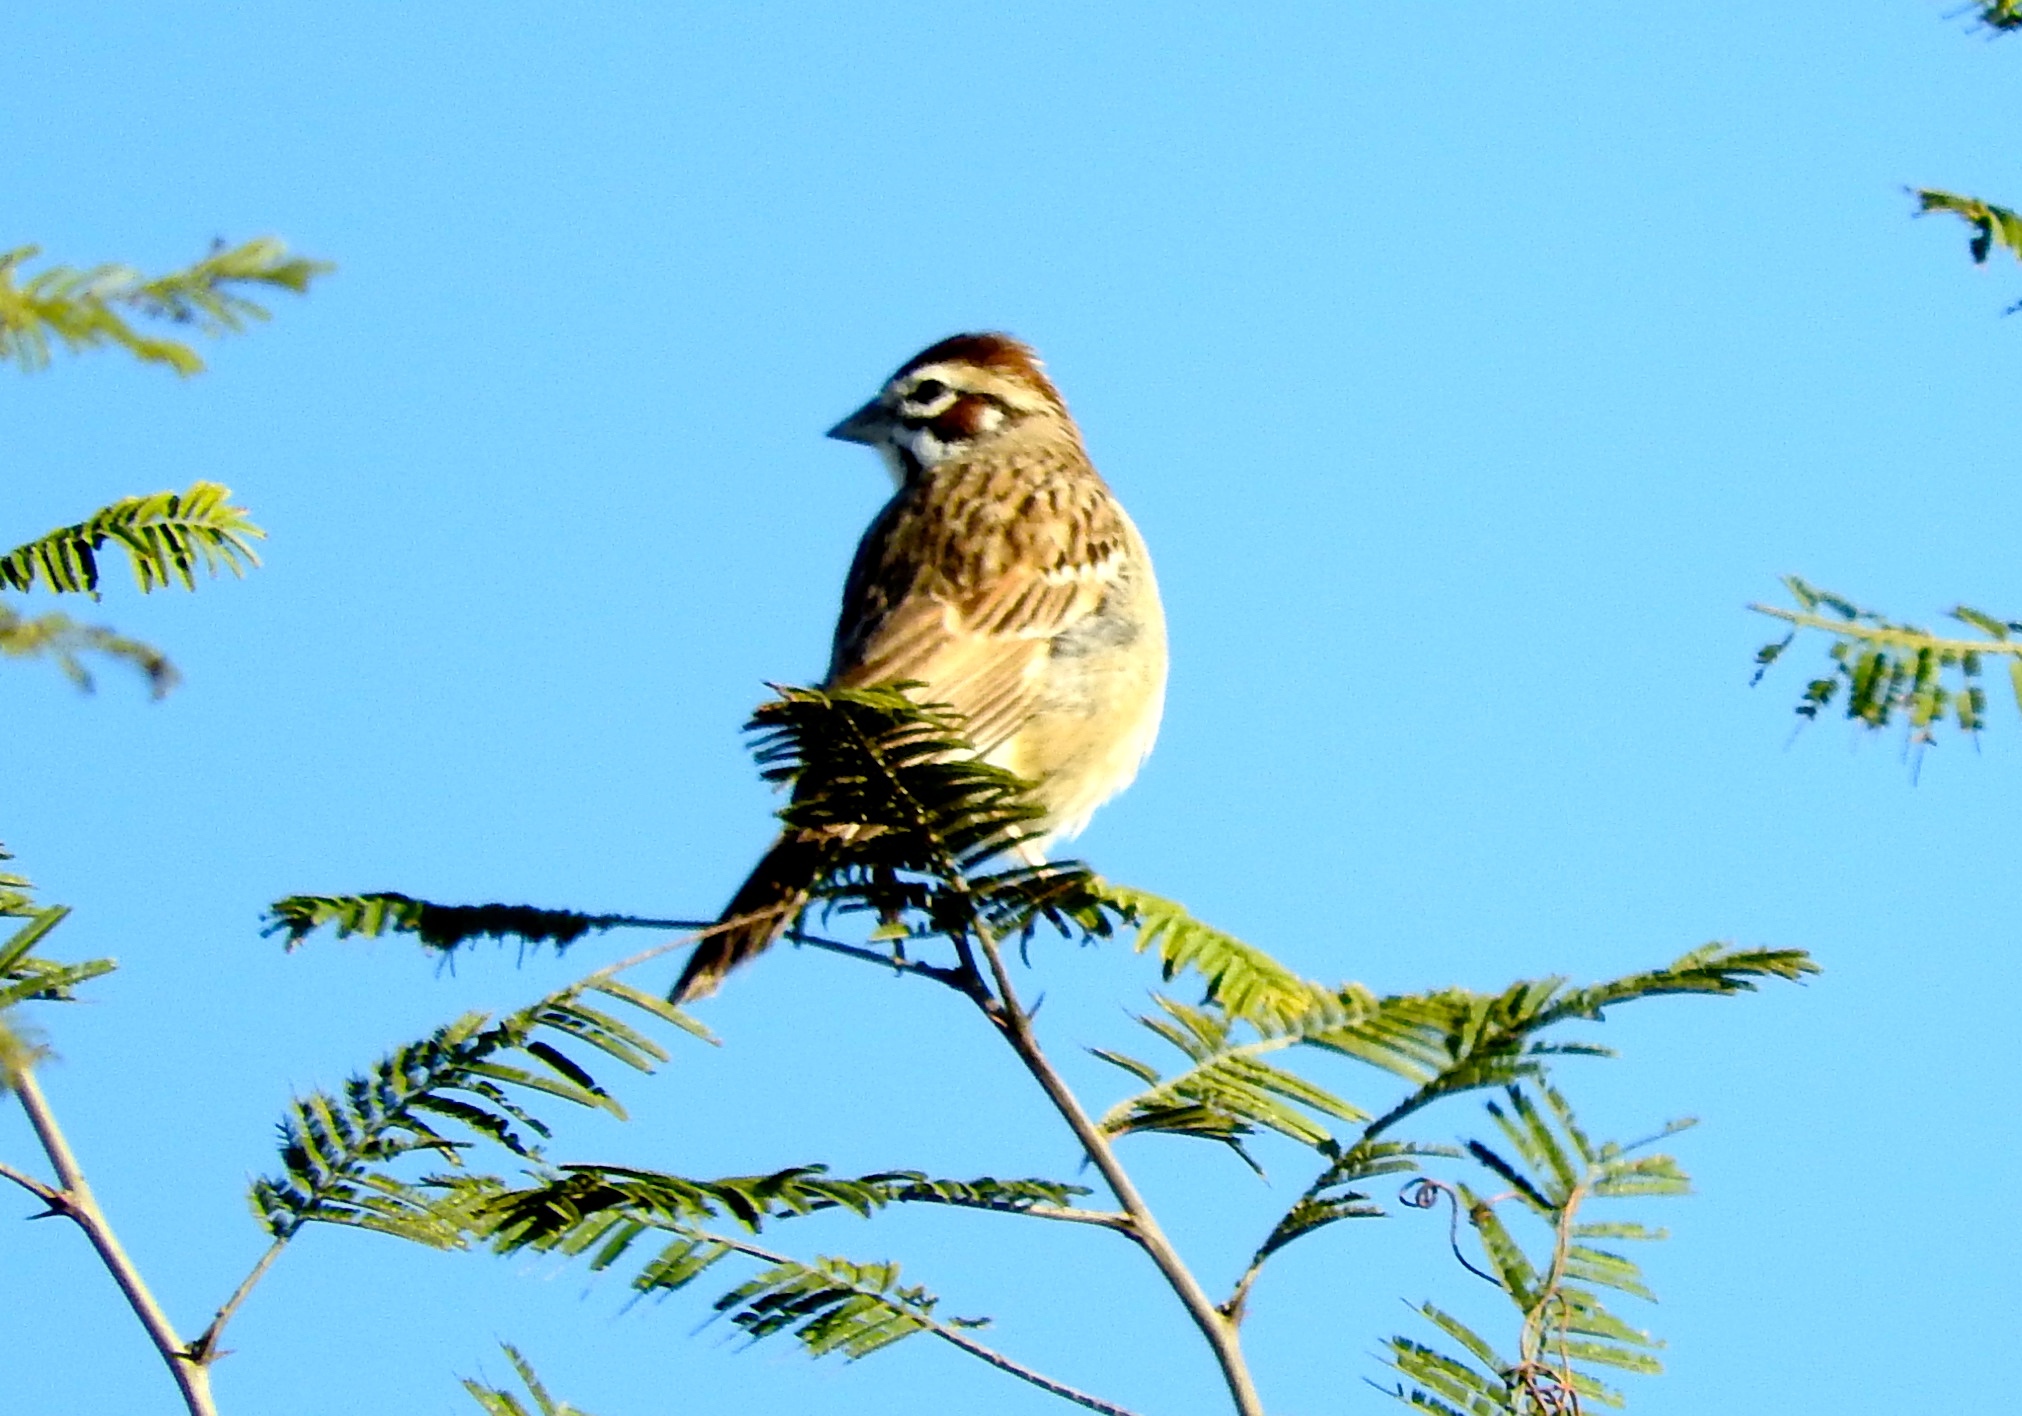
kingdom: Animalia
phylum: Chordata
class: Aves
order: Passeriformes
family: Passerellidae
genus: Chondestes
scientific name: Chondestes grammacus
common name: Lark sparrow
